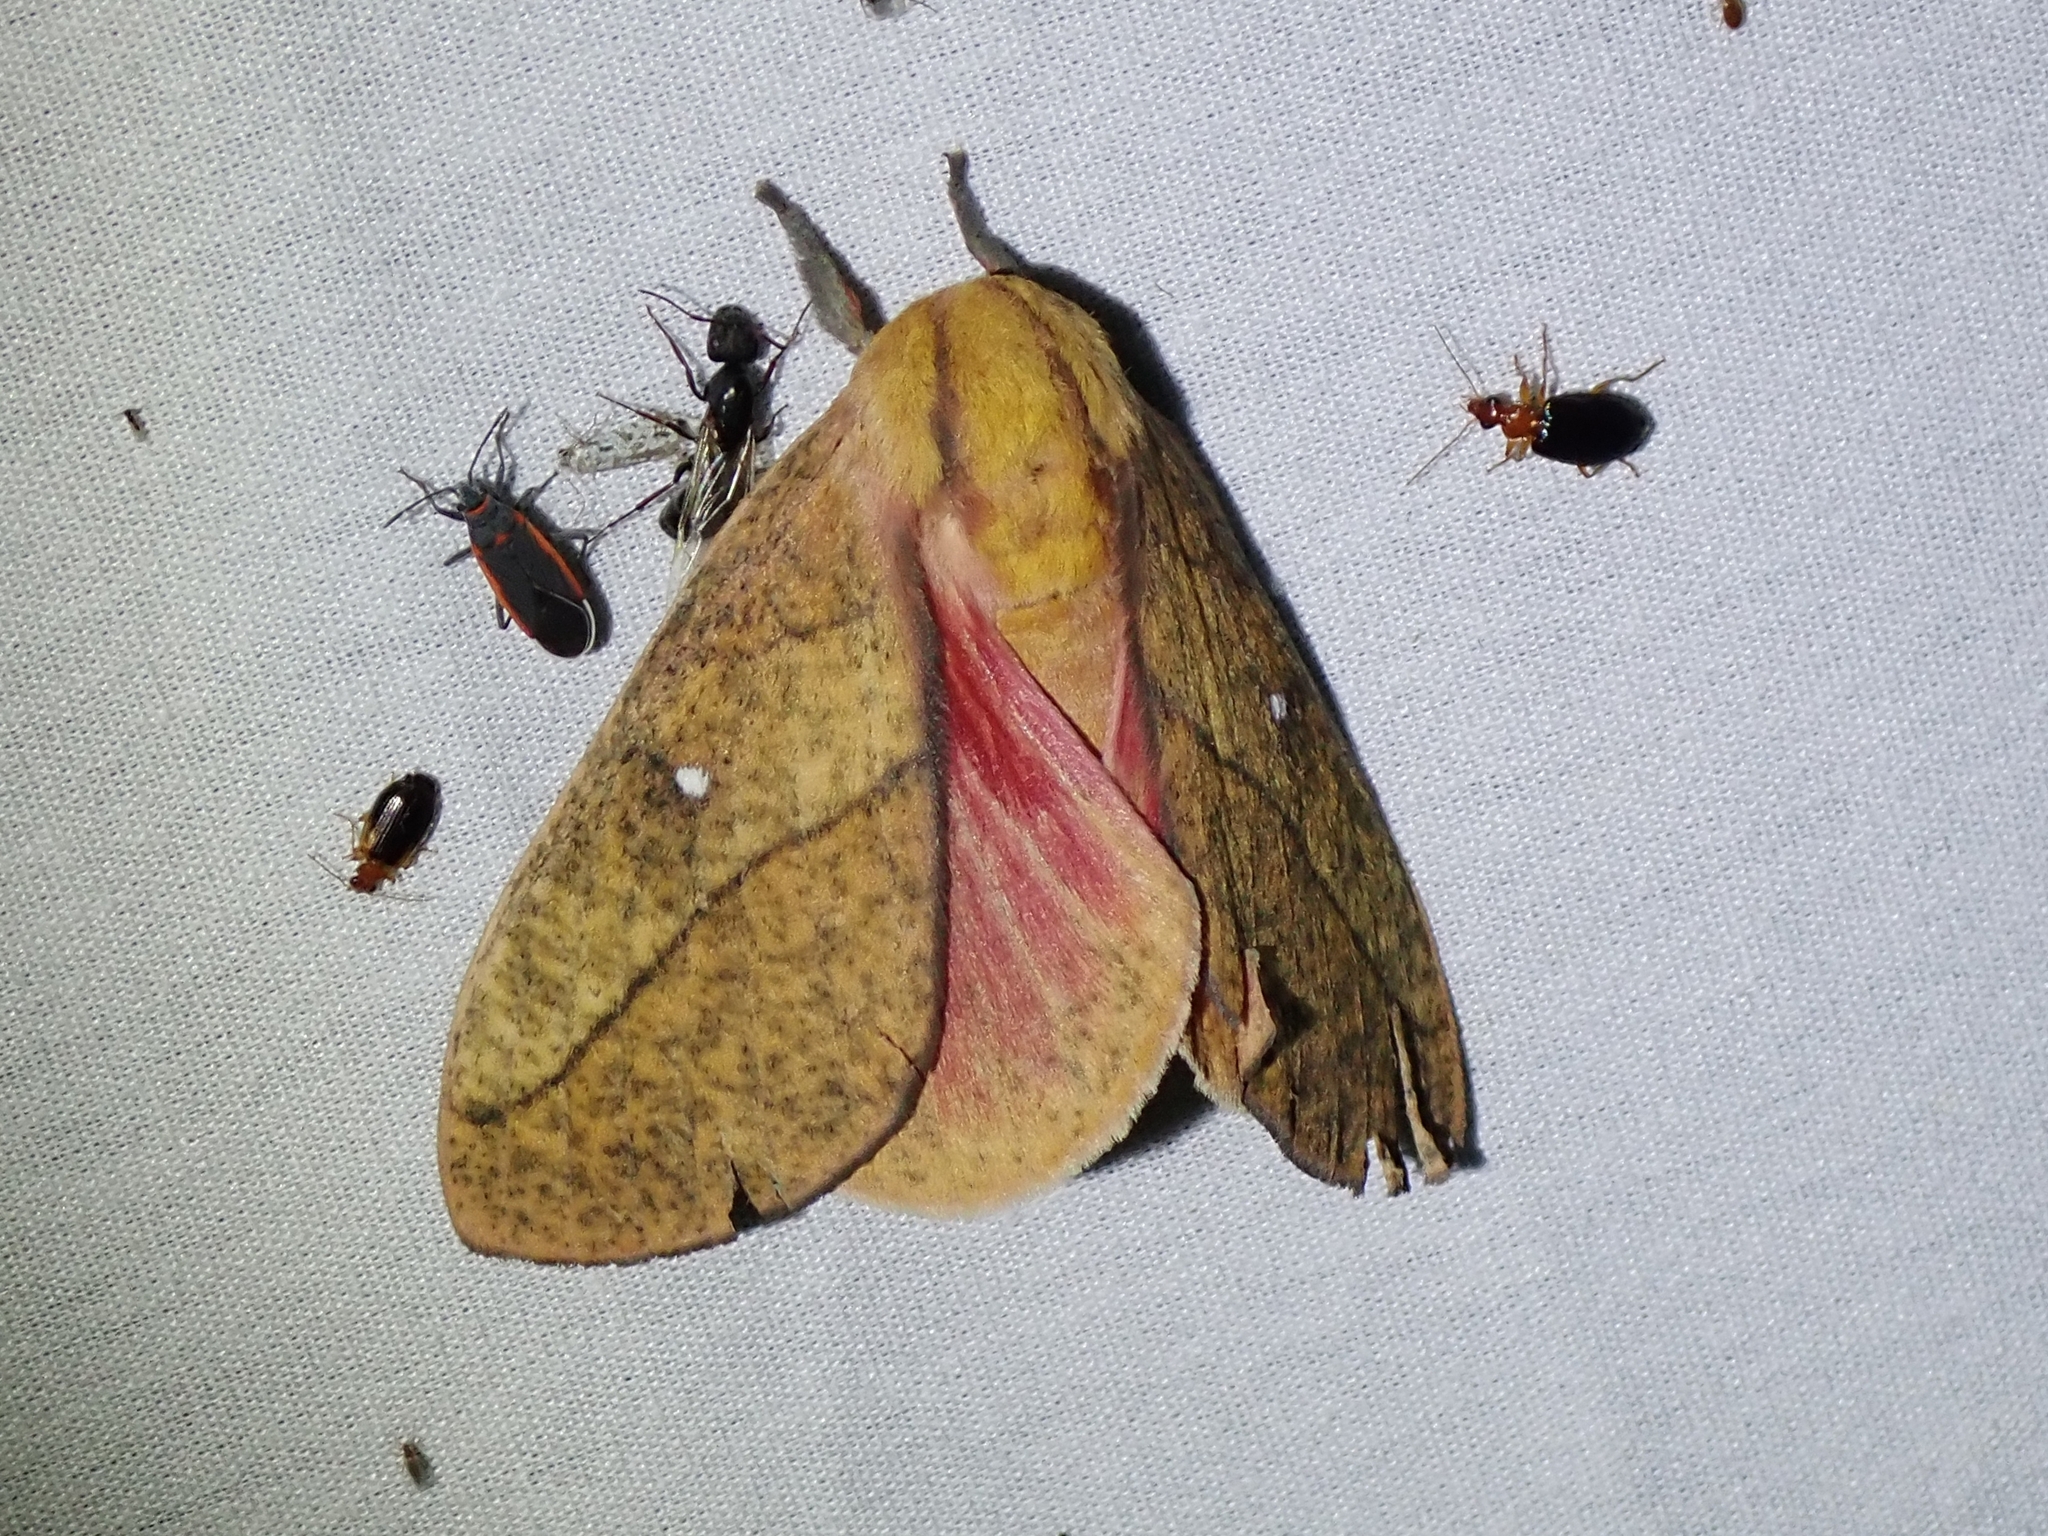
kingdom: Animalia
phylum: Arthropoda
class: Insecta
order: Lepidoptera
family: Saturniidae
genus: Syssphinx
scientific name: Syssphinx montana
